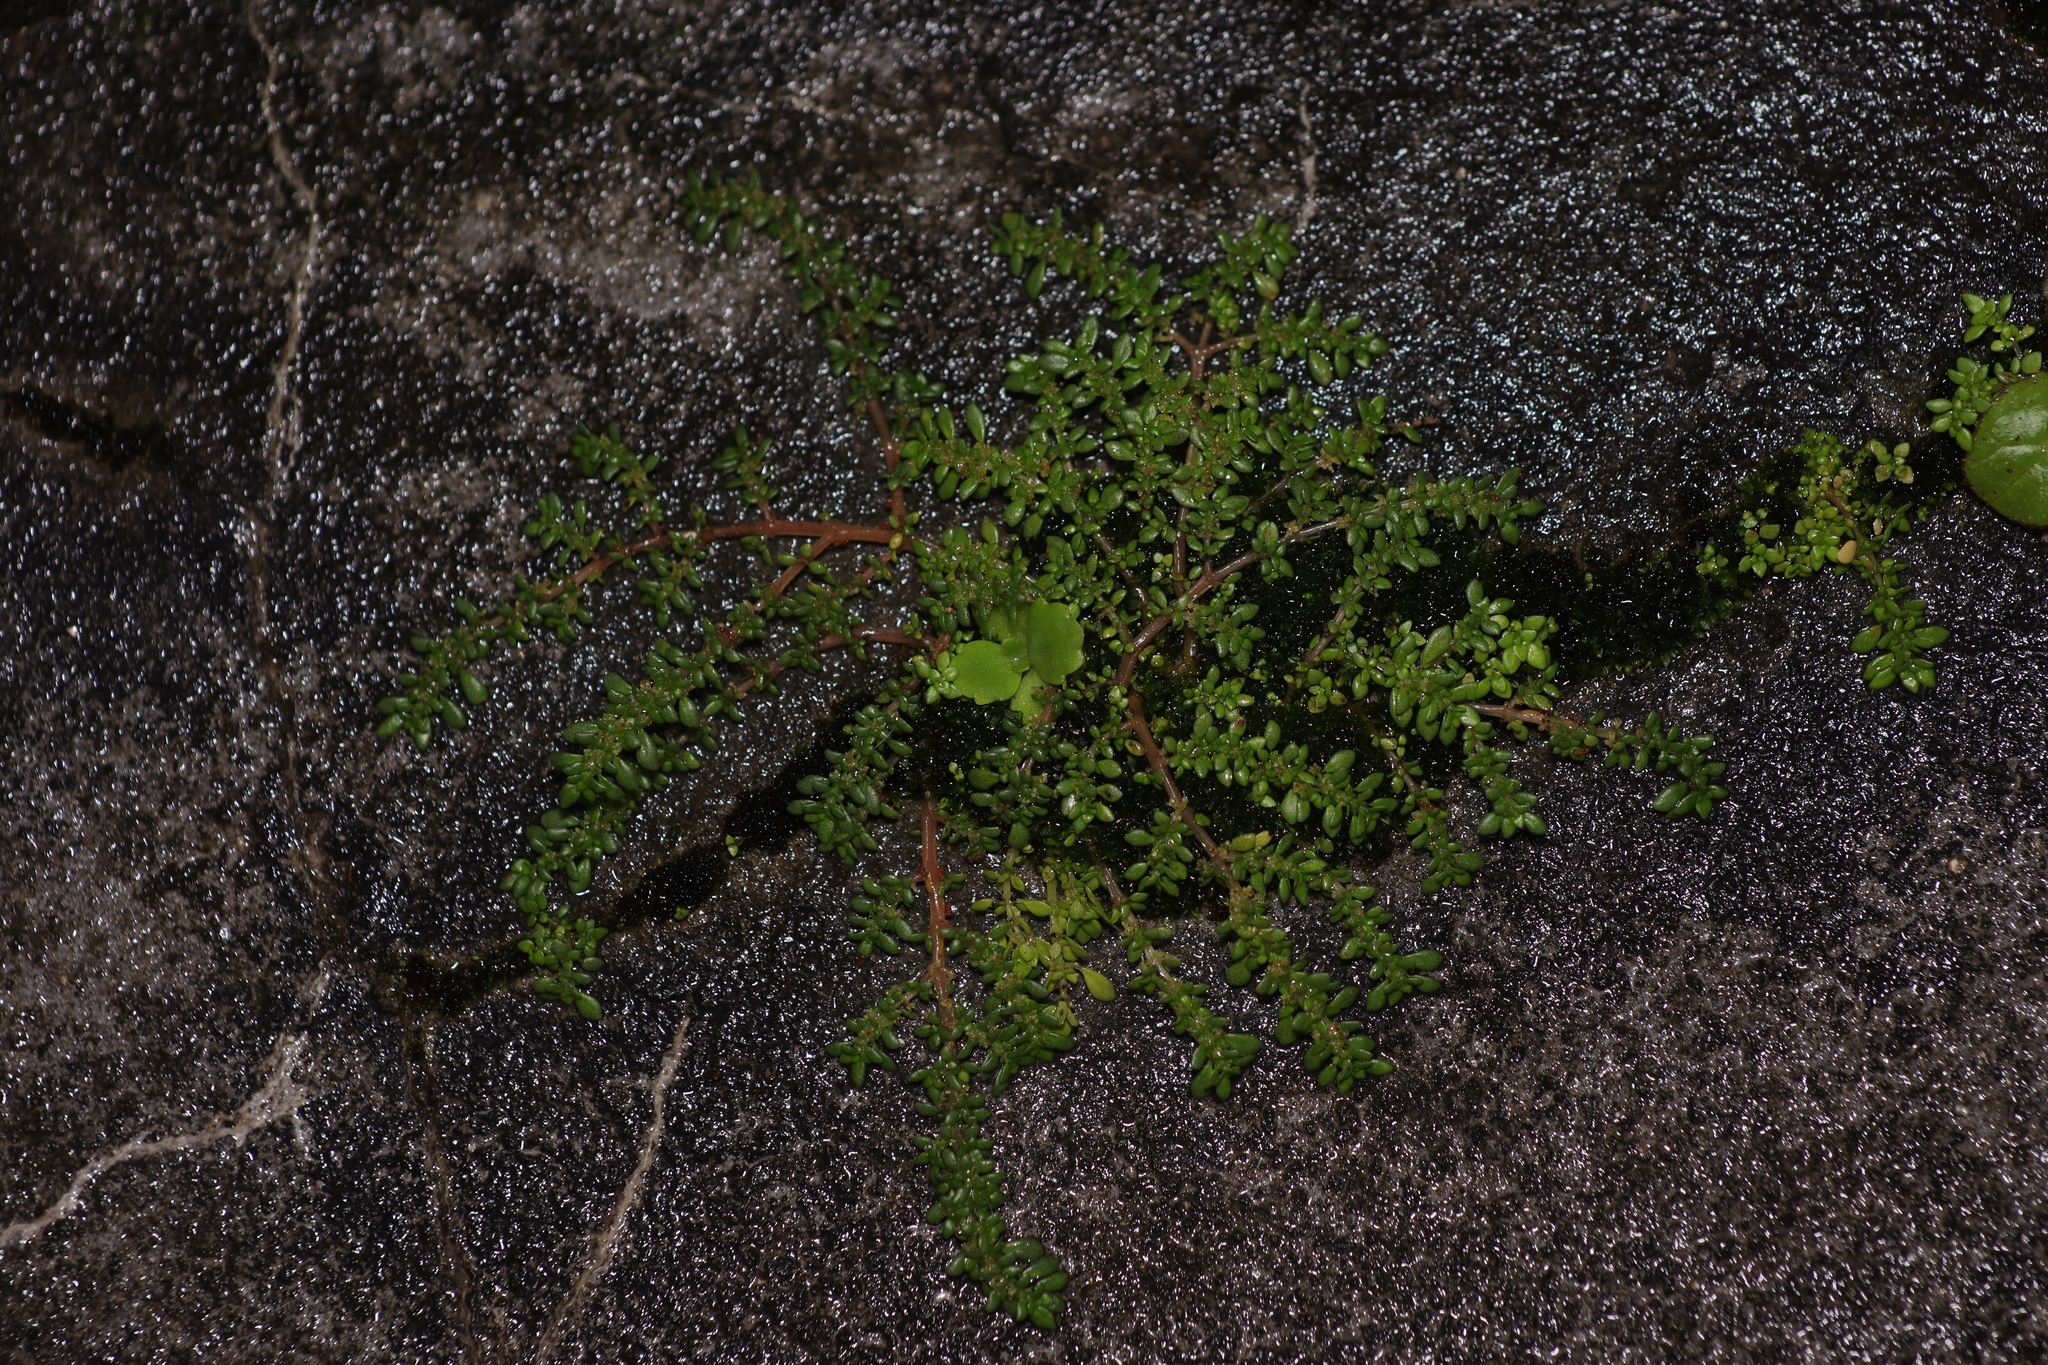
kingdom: Plantae
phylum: Tracheophyta
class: Magnoliopsida
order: Rosales
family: Urticaceae
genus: Pilea
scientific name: Pilea microphylla
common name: Artillery-plant
